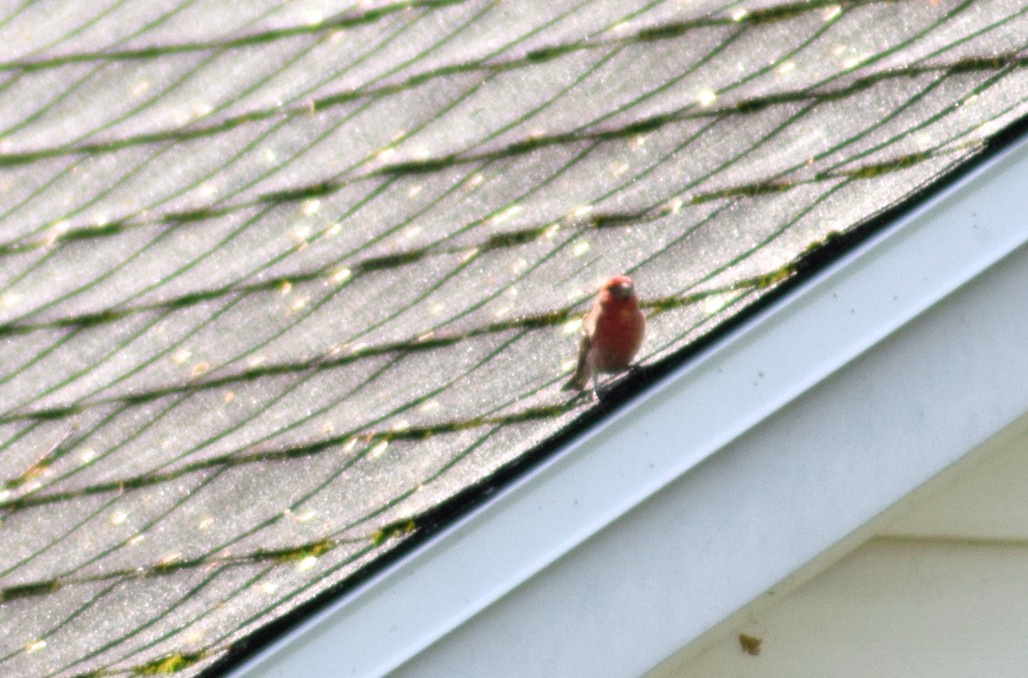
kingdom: Animalia
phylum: Chordata
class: Aves
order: Passeriformes
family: Fringillidae
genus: Haemorhous
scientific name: Haemorhous mexicanus
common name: House finch
